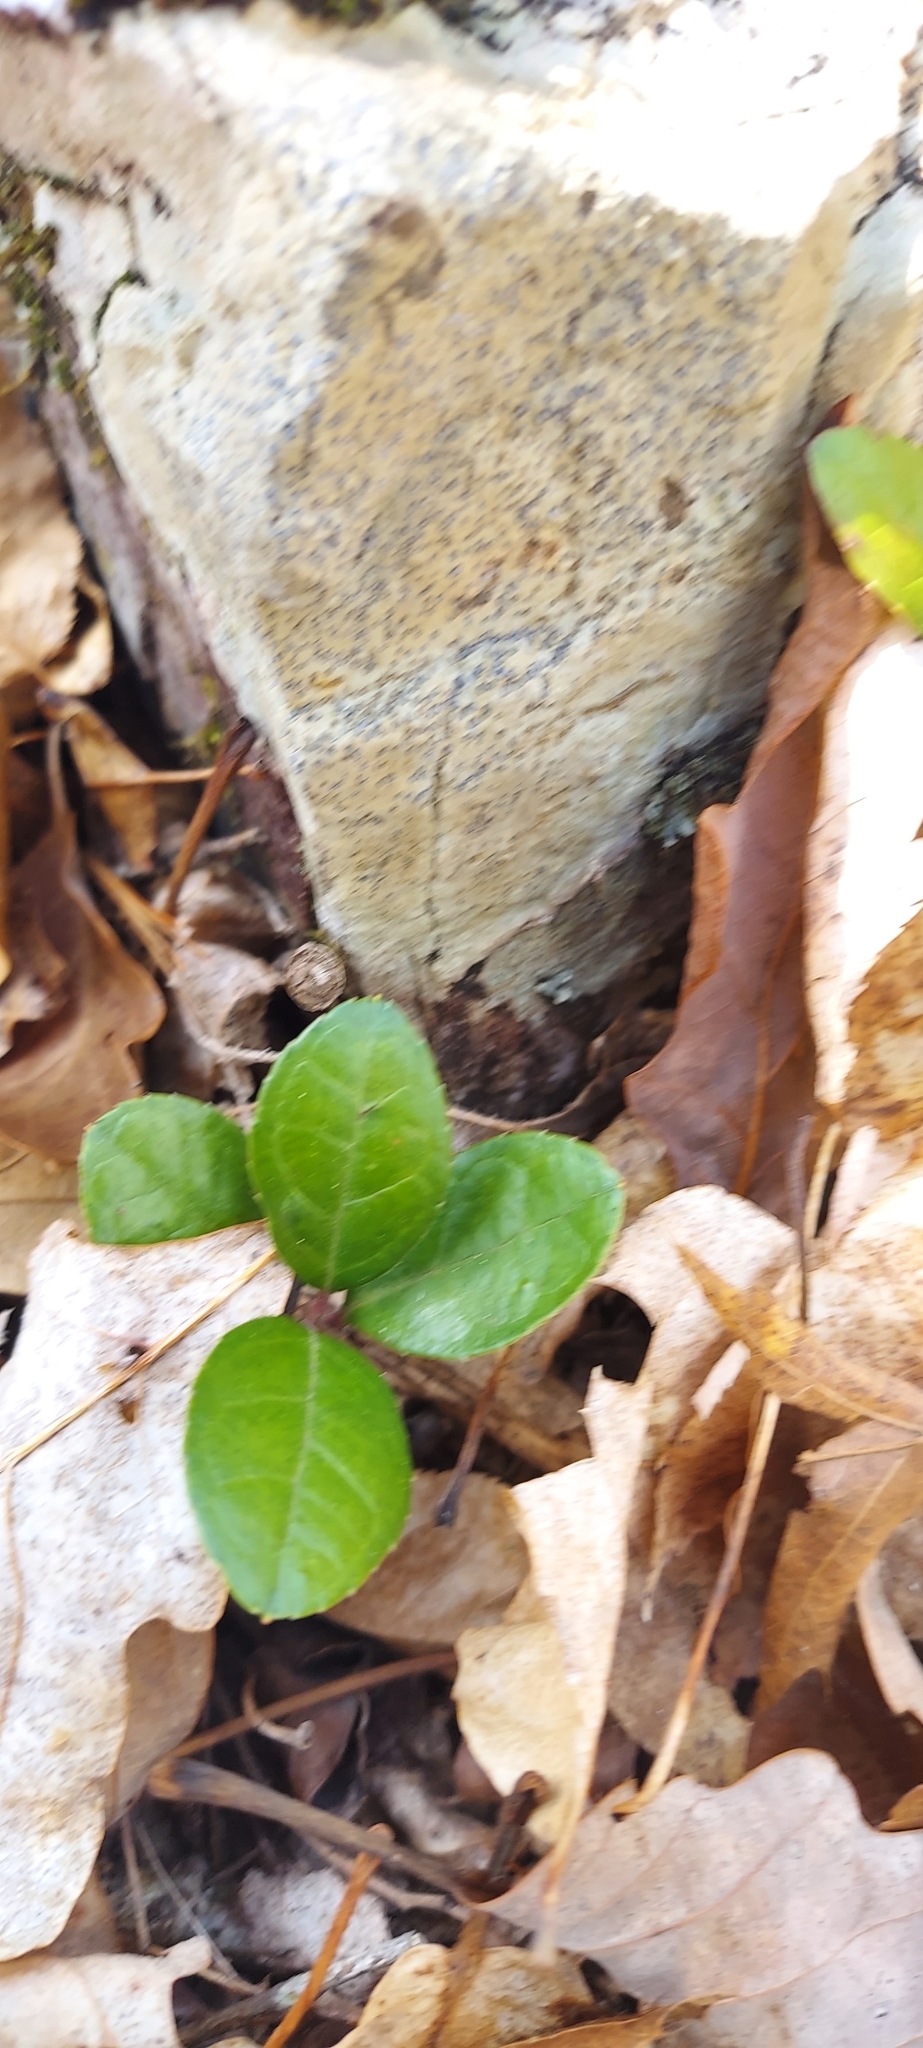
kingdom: Plantae
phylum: Tracheophyta
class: Magnoliopsida
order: Ericales
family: Ericaceae
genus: Gaultheria
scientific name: Gaultheria procumbens
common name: Checkerberry
